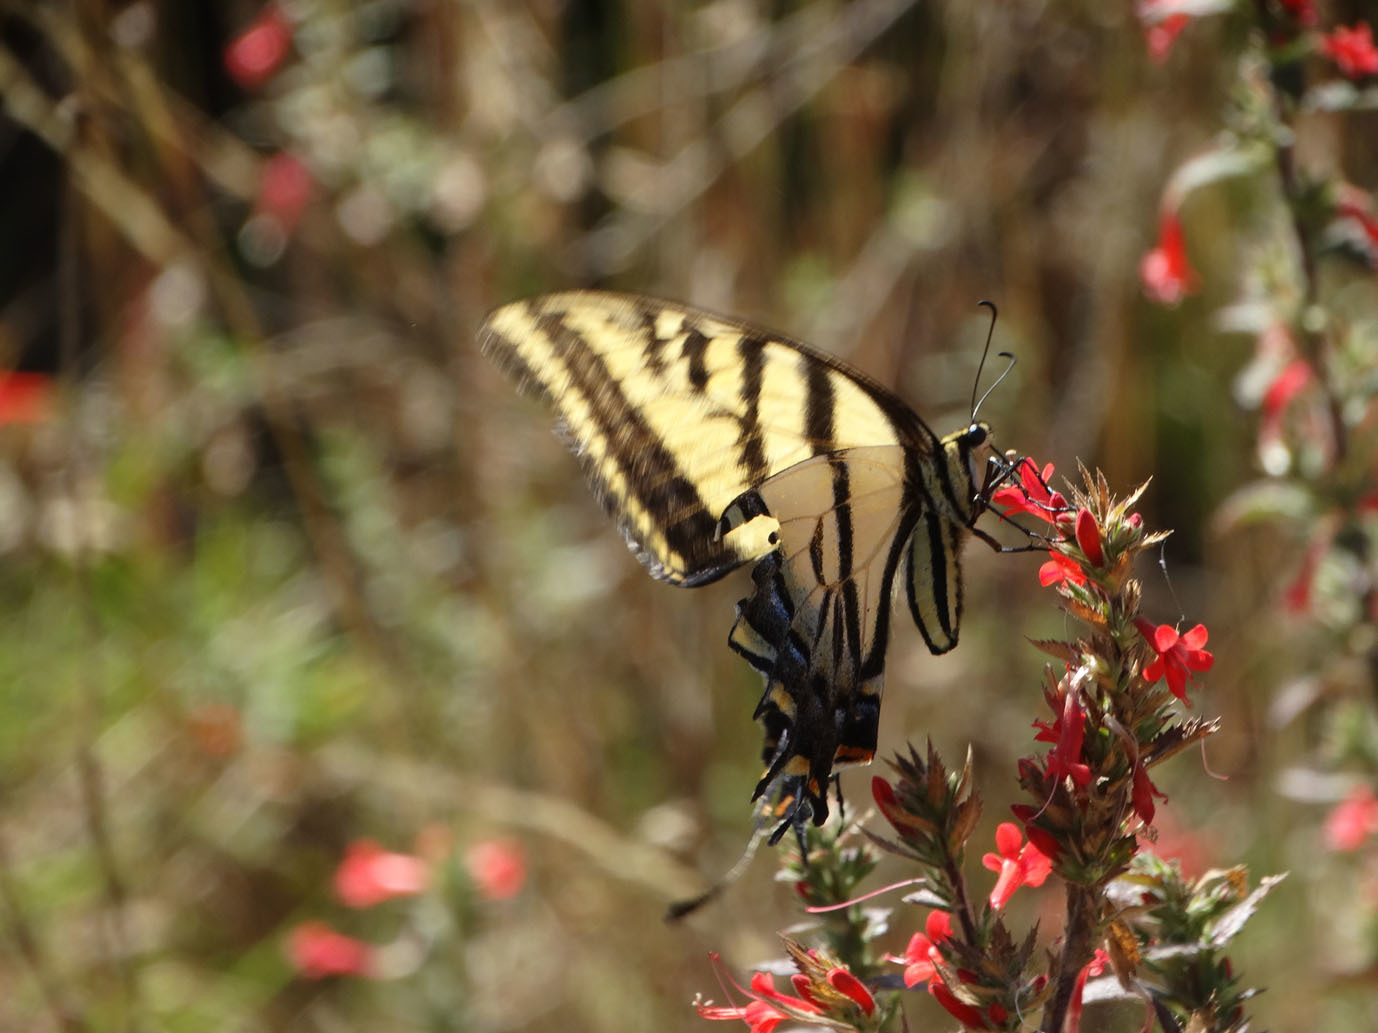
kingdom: Animalia
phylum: Arthropoda
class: Insecta
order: Lepidoptera
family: Papilionidae
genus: Papilio
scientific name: Papilio multicaudata
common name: Two-tailed tiger swallowtail
